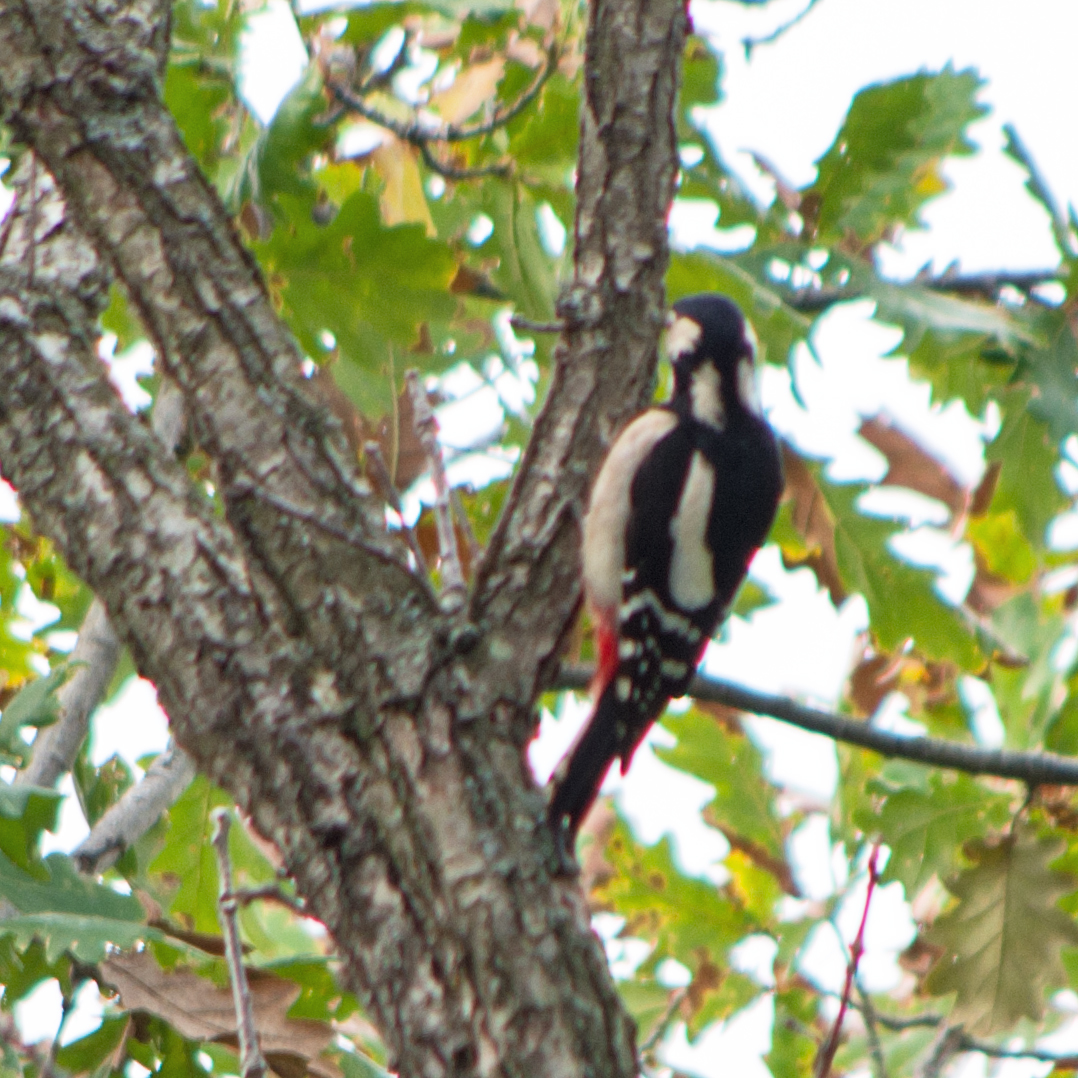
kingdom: Animalia
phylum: Chordata
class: Aves
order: Piciformes
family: Picidae
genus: Dendrocopos
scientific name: Dendrocopos major
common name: Great spotted woodpecker
